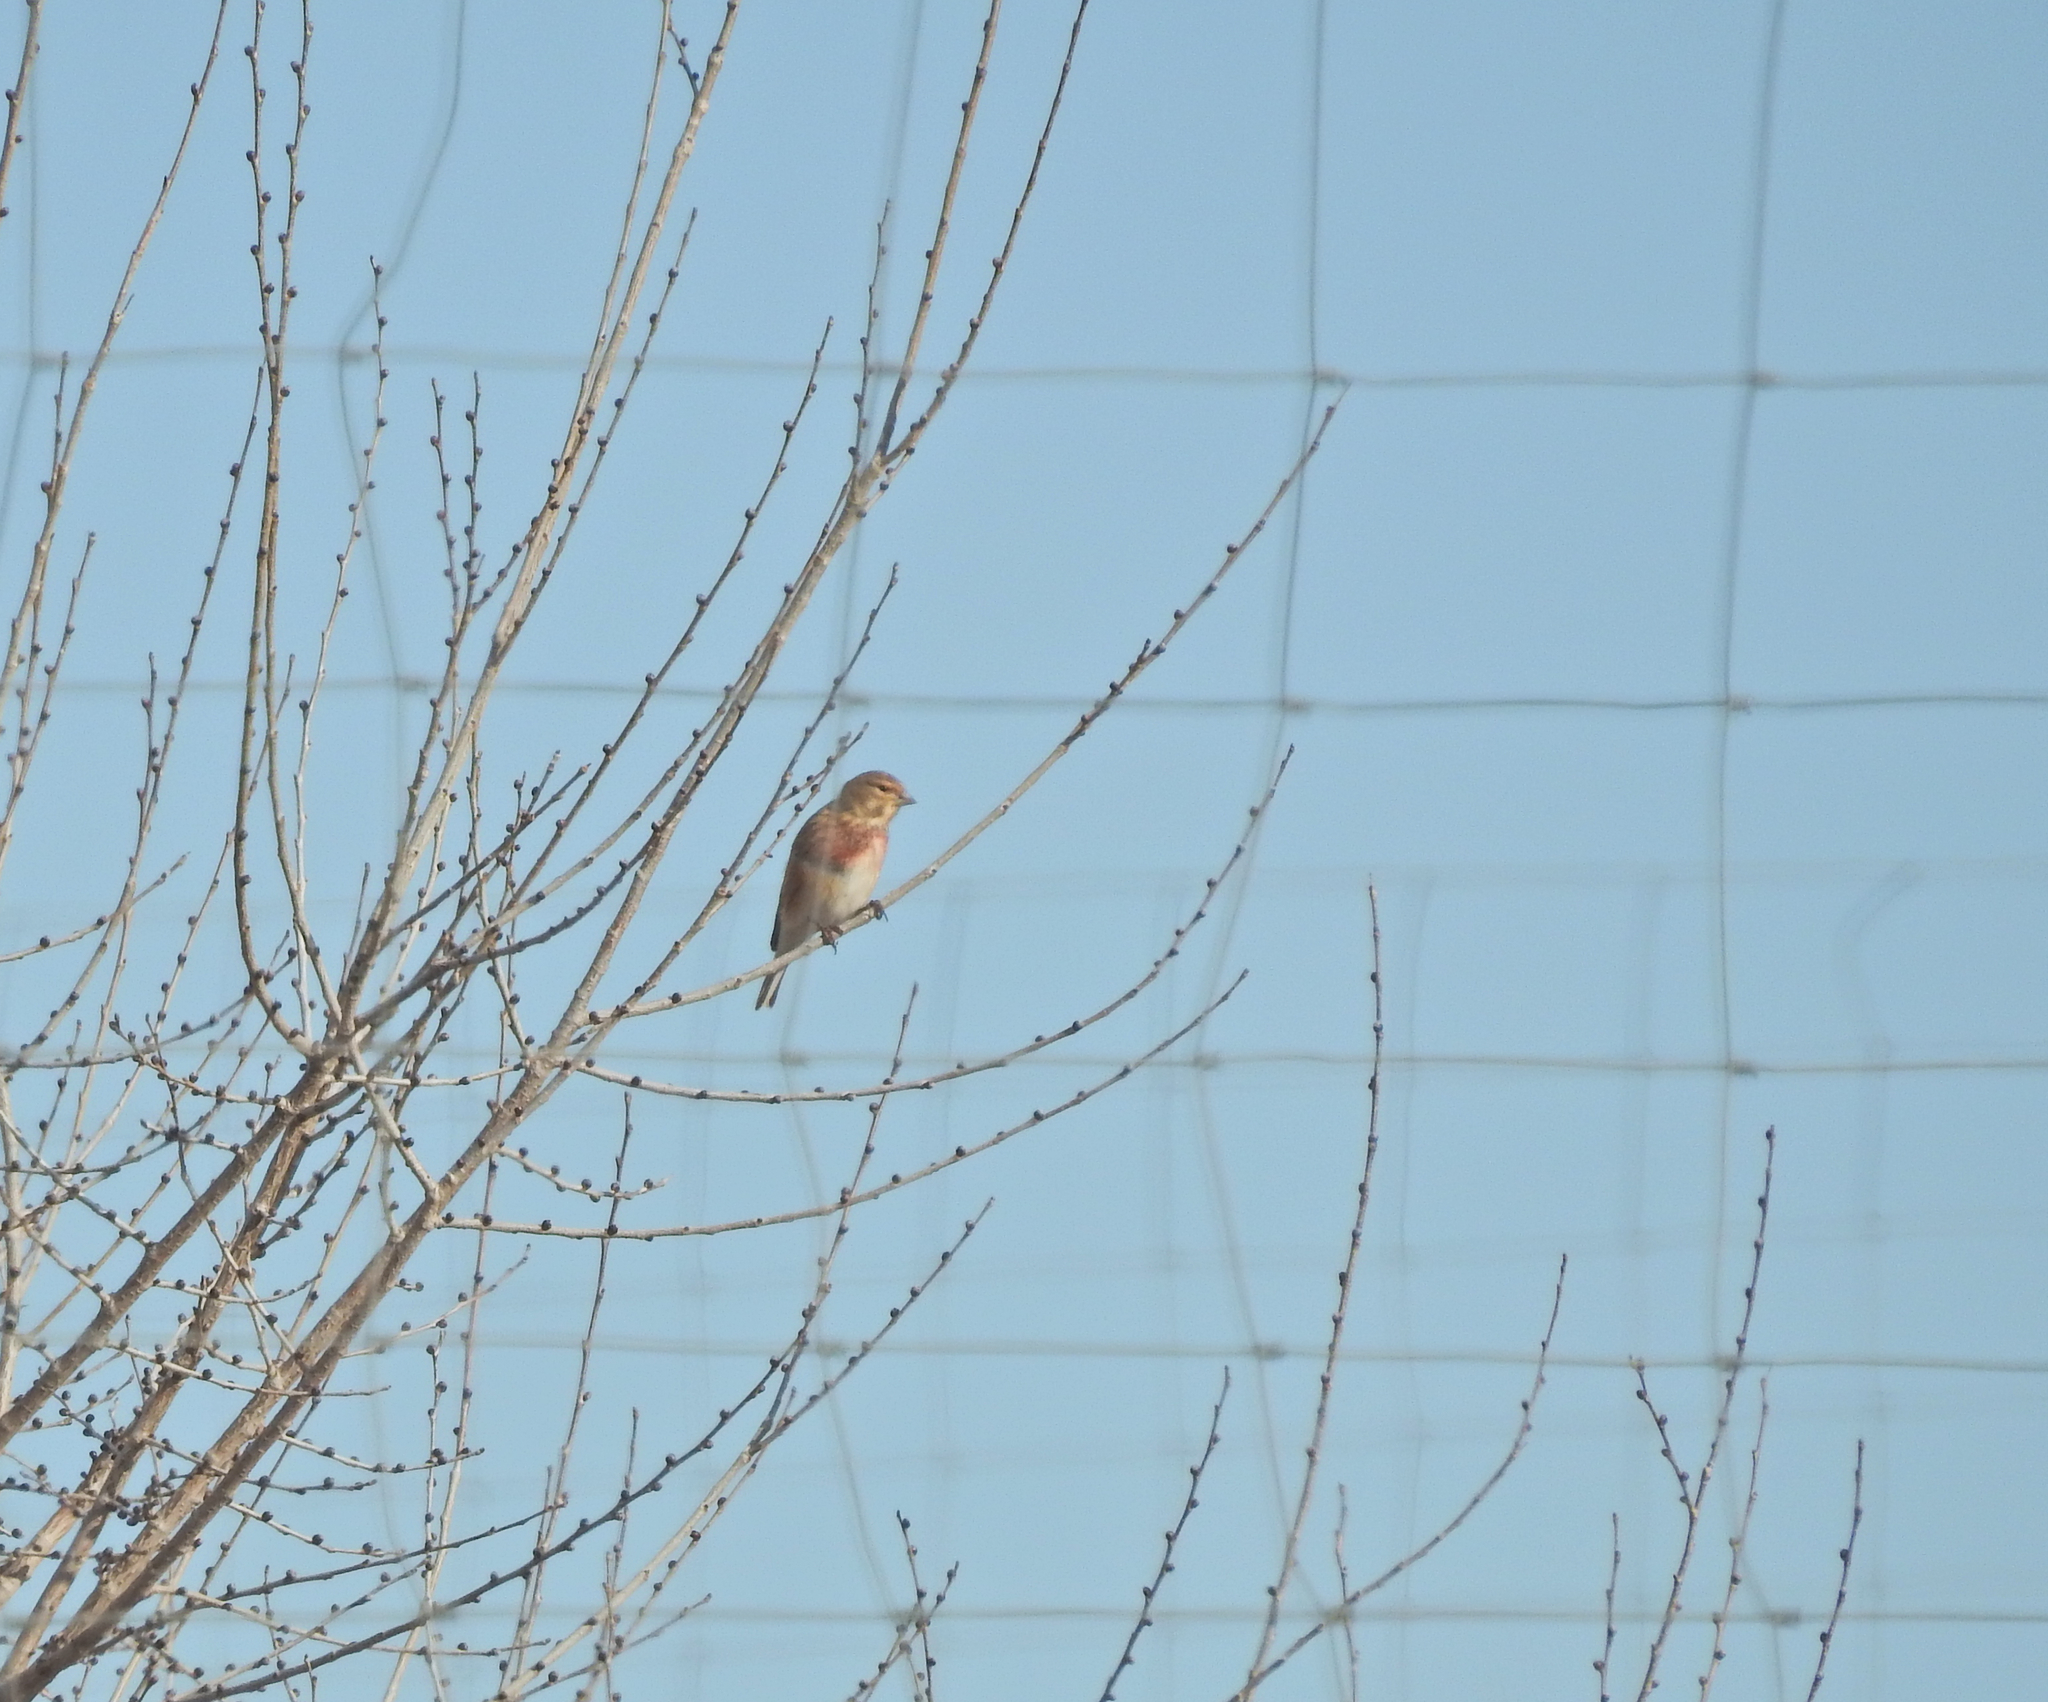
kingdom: Animalia
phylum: Chordata
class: Aves
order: Passeriformes
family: Fringillidae
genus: Linaria
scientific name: Linaria cannabina
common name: Common linnet
